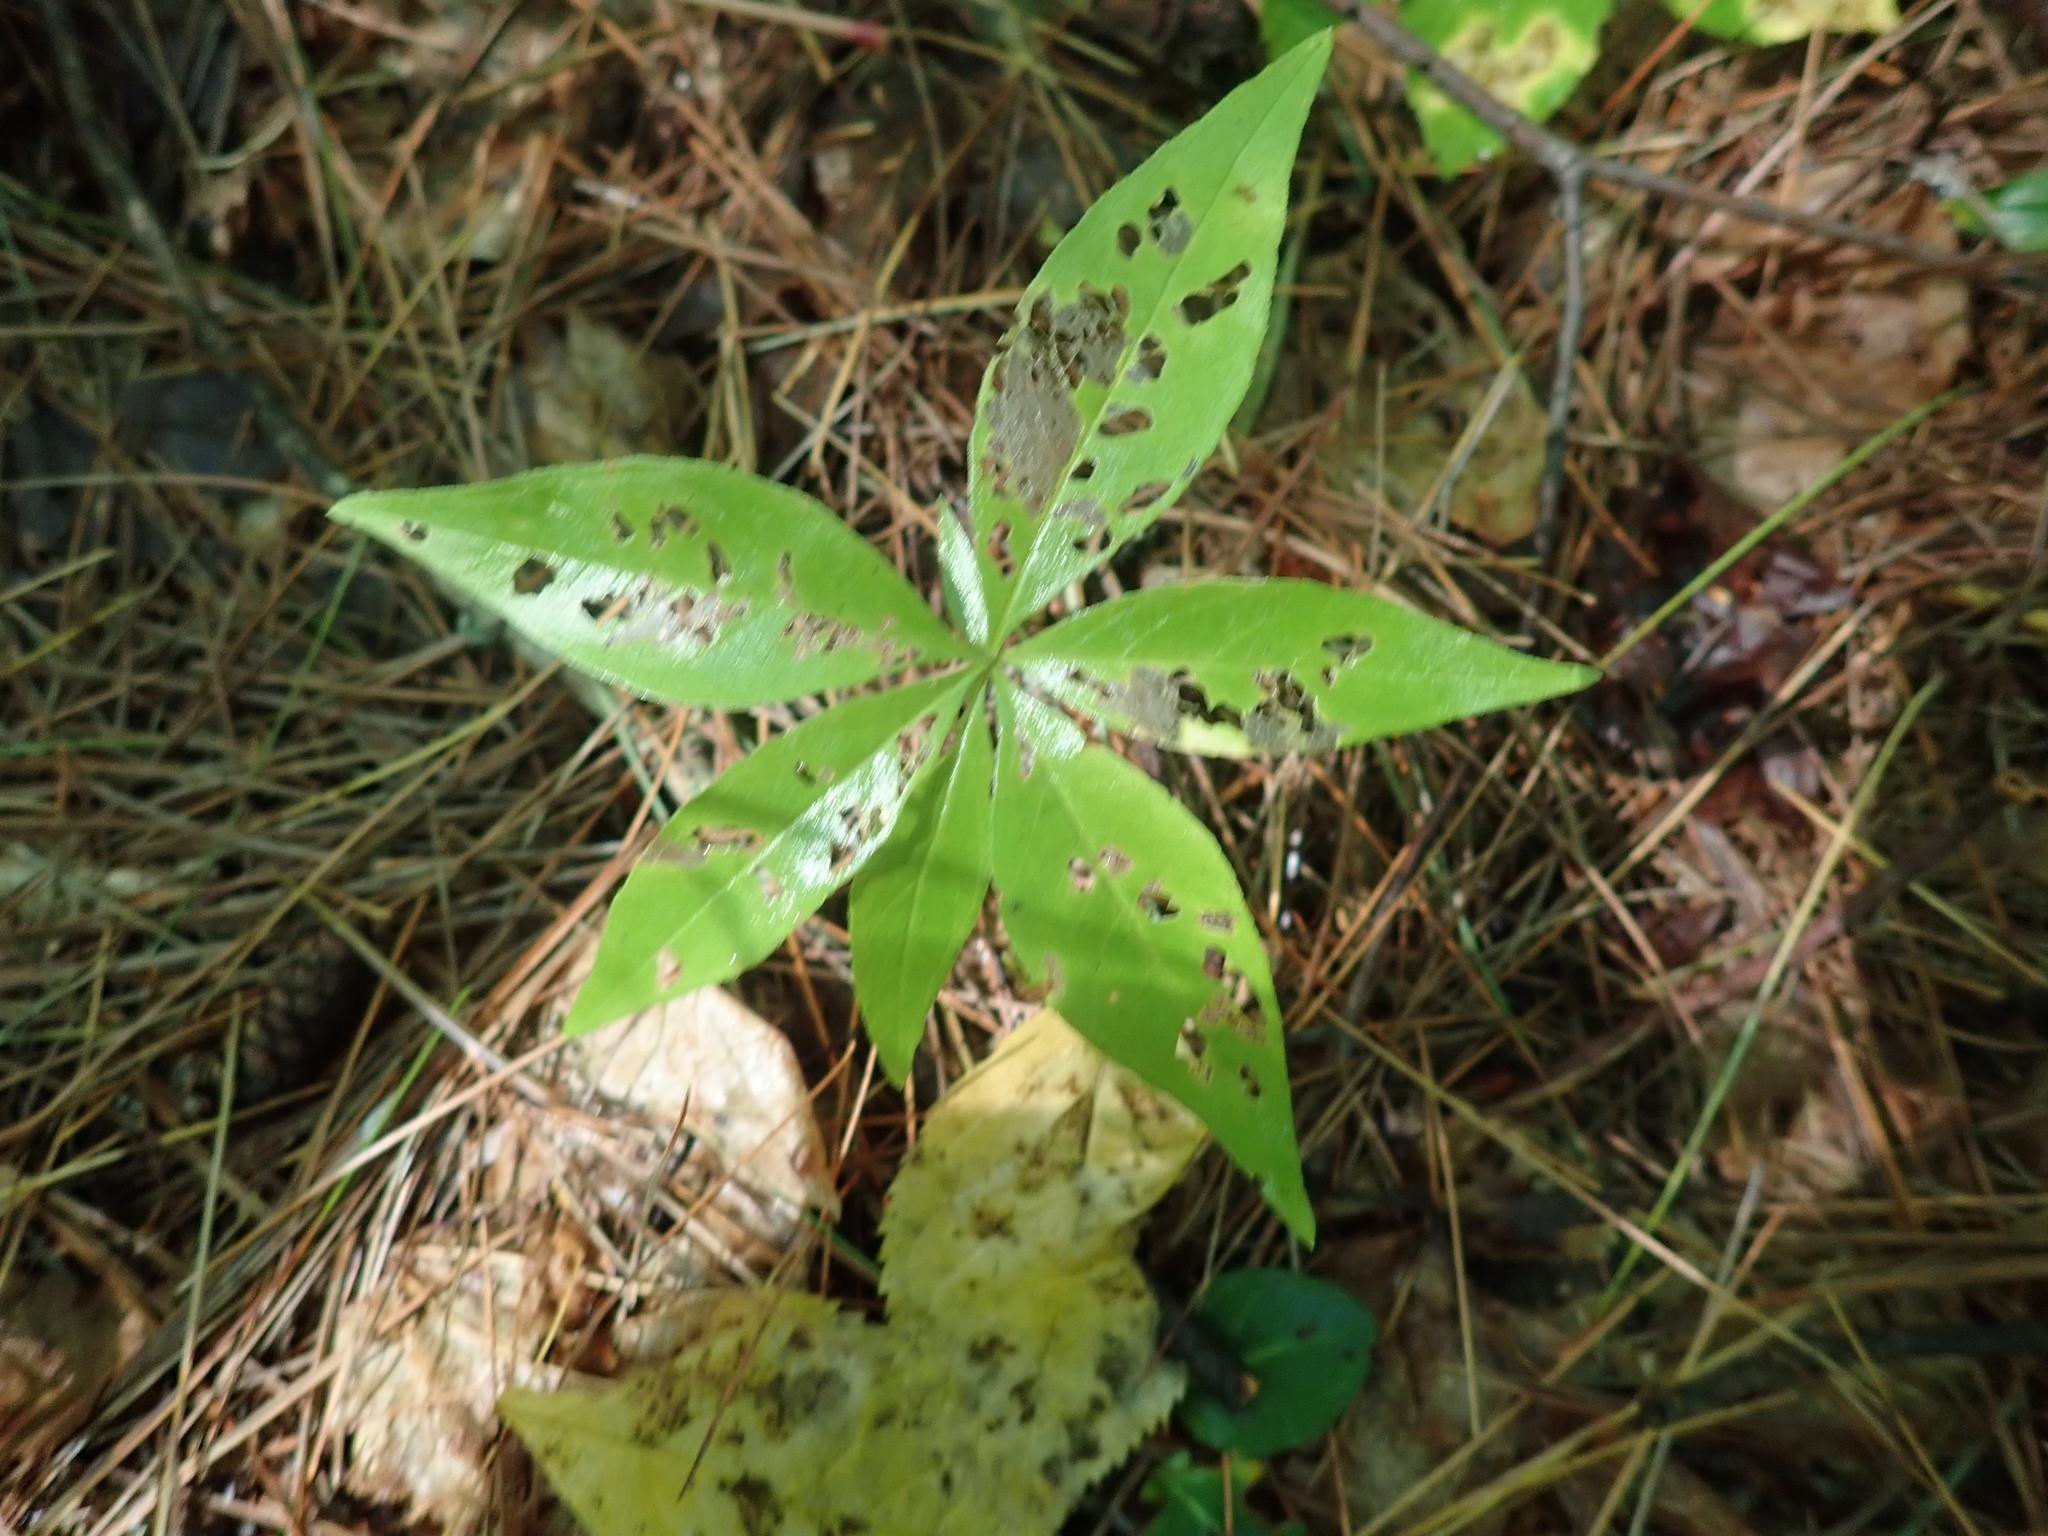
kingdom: Plantae
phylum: Tracheophyta
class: Magnoliopsida
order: Ericales
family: Primulaceae
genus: Lysimachia
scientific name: Lysimachia borealis
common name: American starflower
